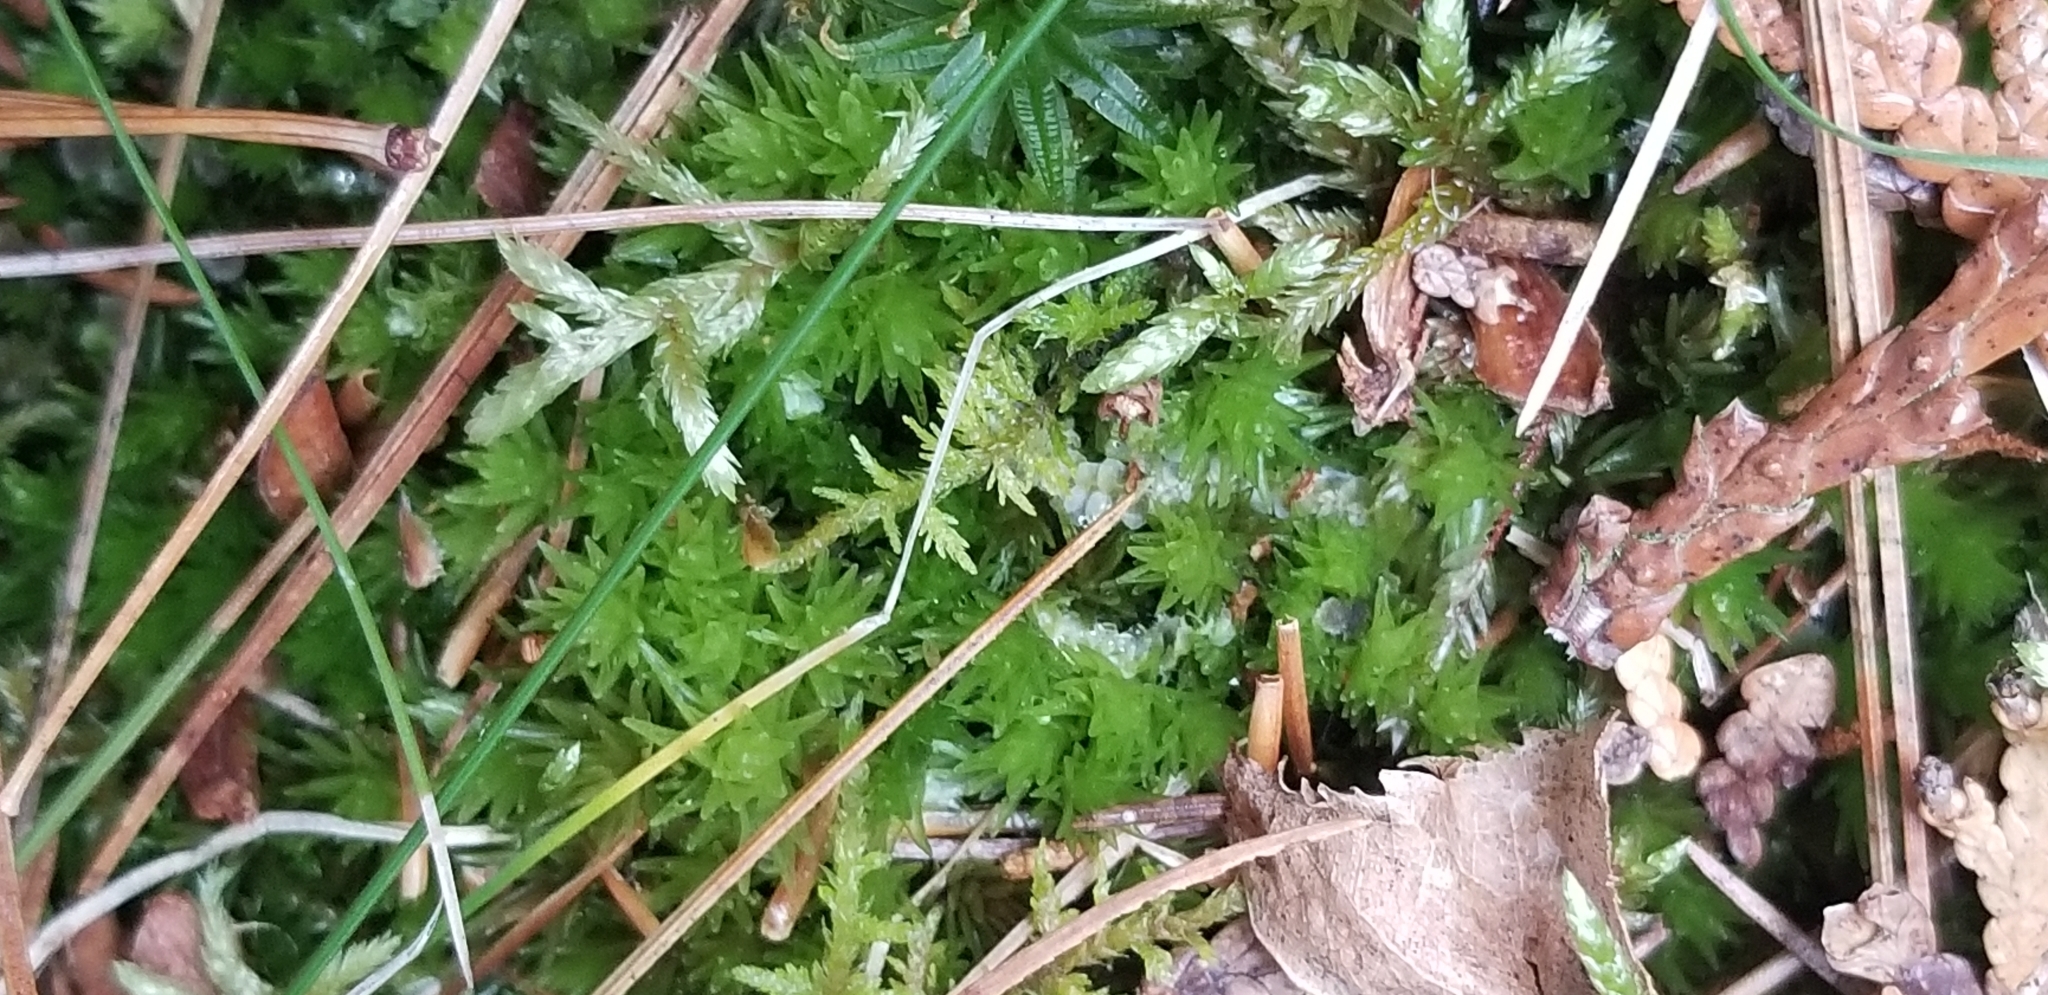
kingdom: Plantae
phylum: Bryophyta
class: Bryopsida
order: Dicranales
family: Leucobryaceae
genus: Leucobryum
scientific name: Leucobryum glaucum
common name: Large white-moss
